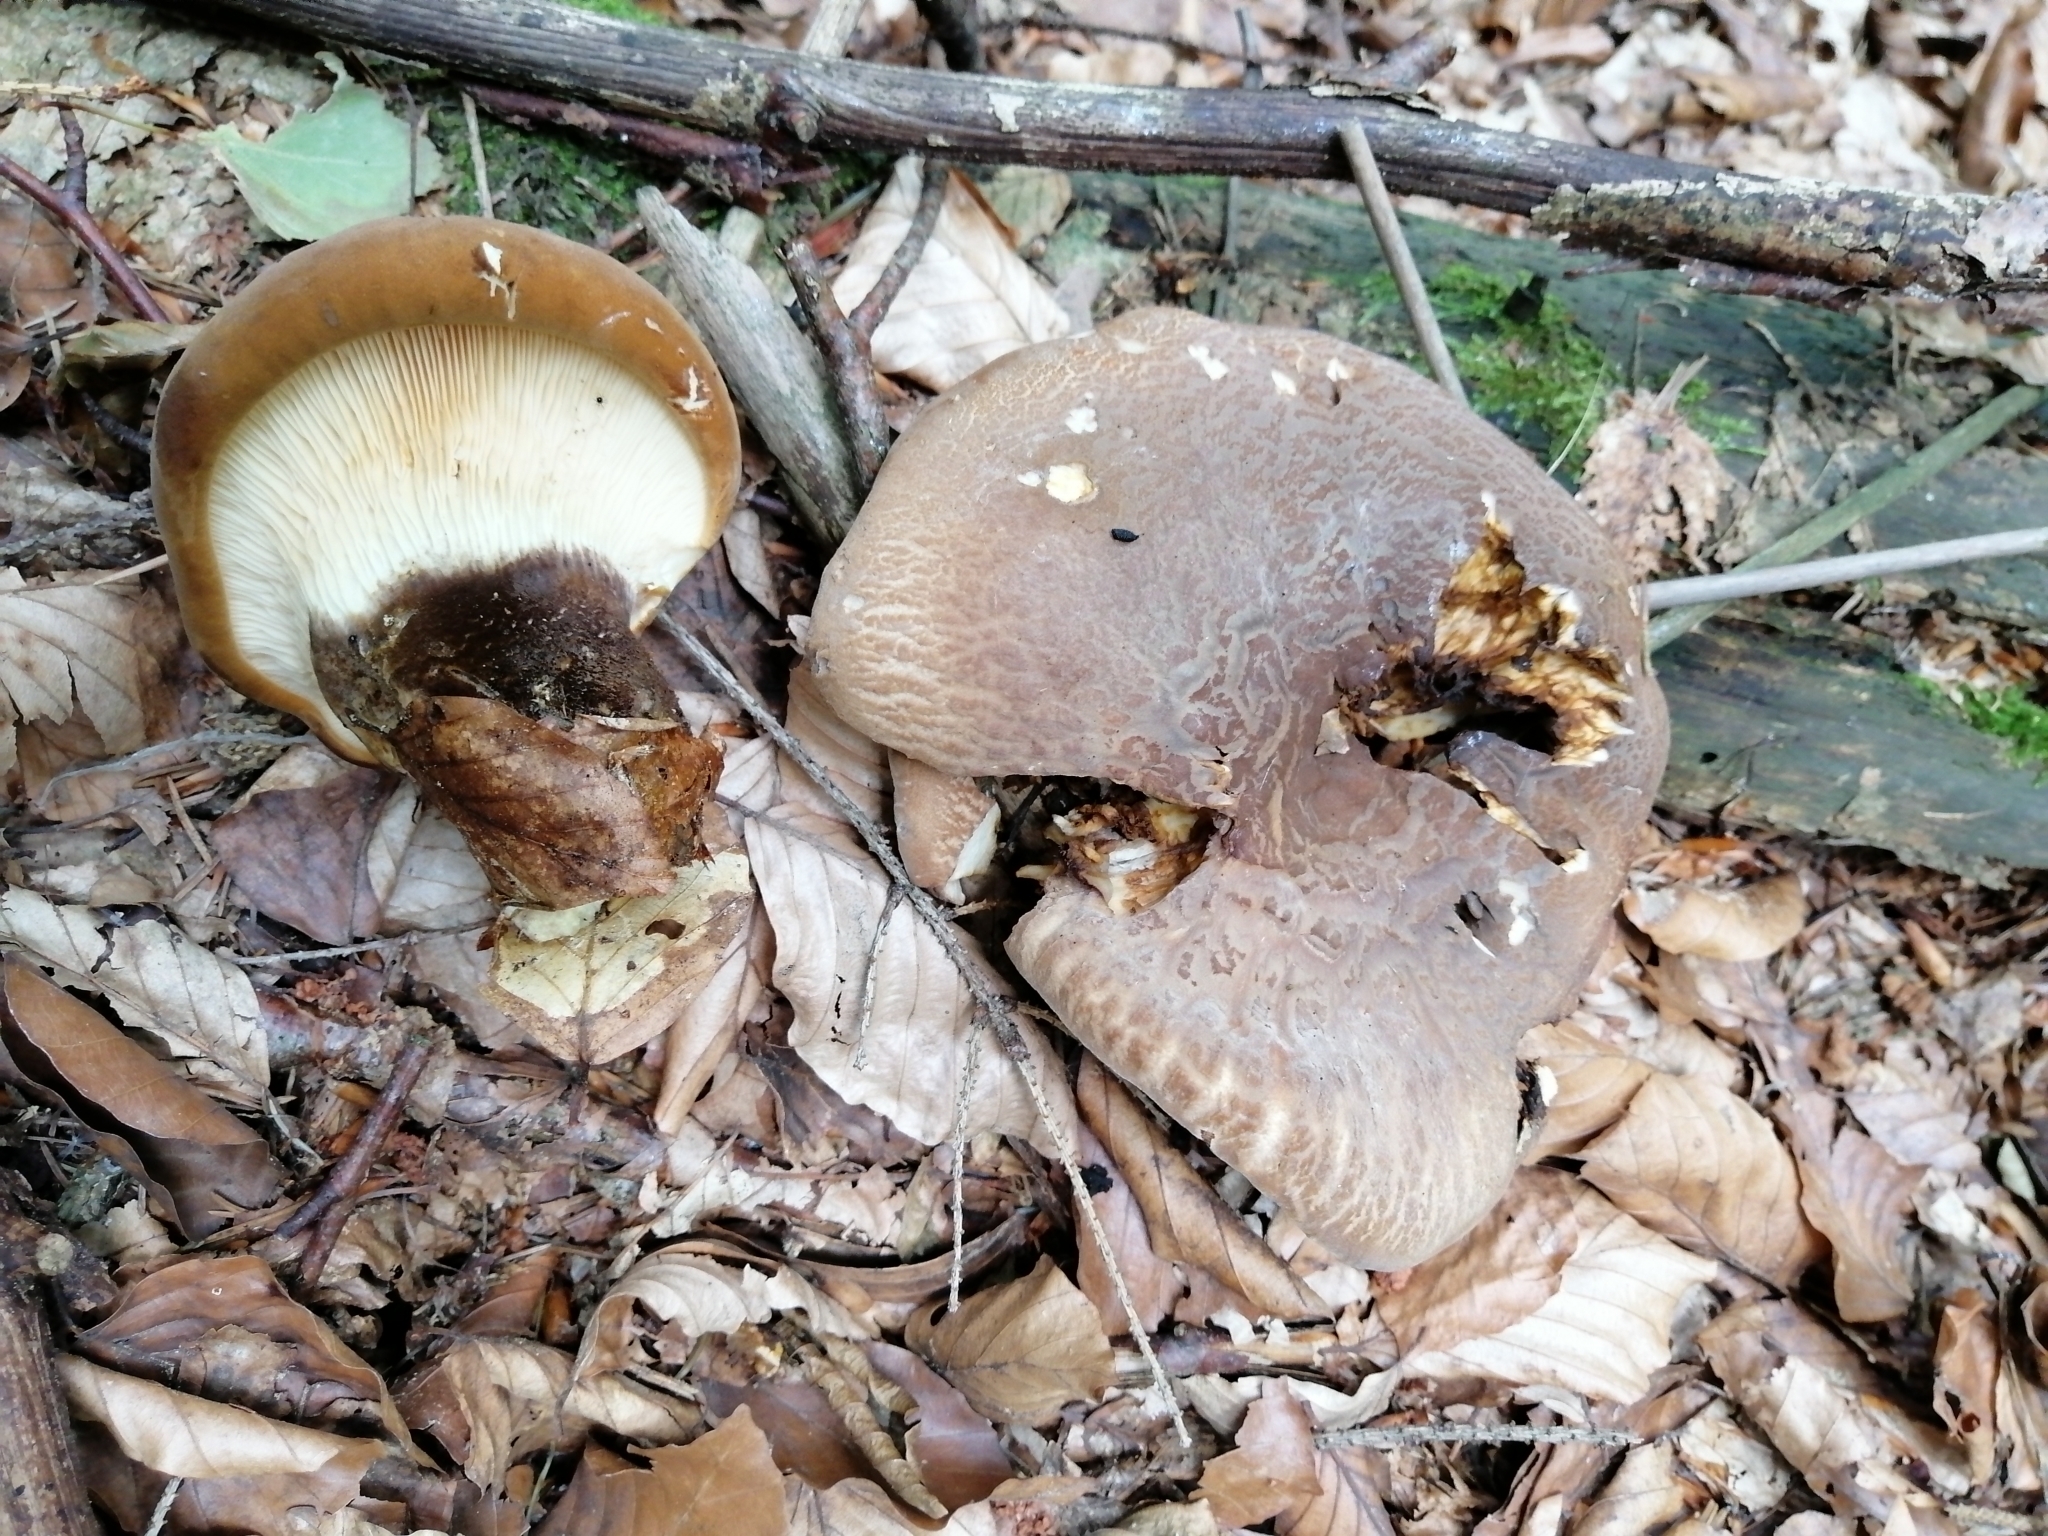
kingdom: Fungi
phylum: Basidiomycota
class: Agaricomycetes
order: Boletales
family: Tapinellaceae
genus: Tapinella
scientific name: Tapinella atrotomentosa
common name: Velvet rollrim
